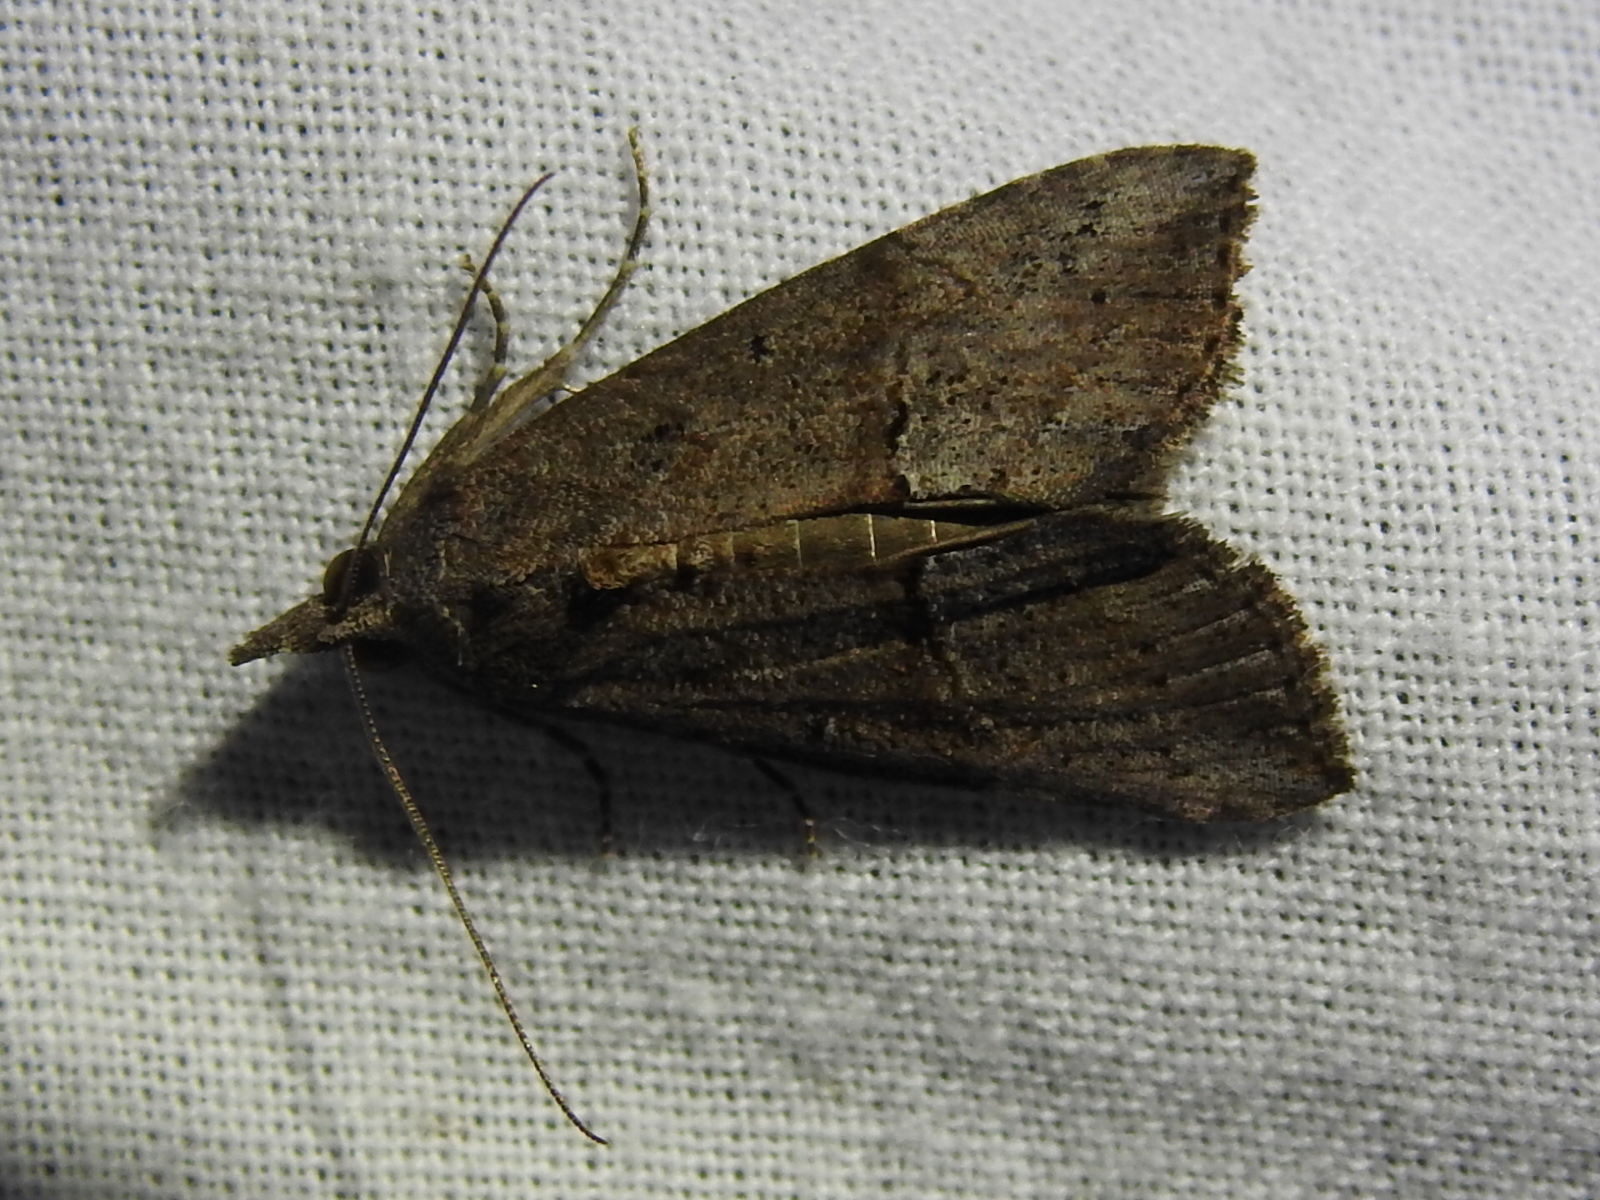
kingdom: Animalia
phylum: Arthropoda
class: Insecta
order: Lepidoptera
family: Erebidae
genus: Hypena
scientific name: Hypena scabra
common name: Green cloverworm
